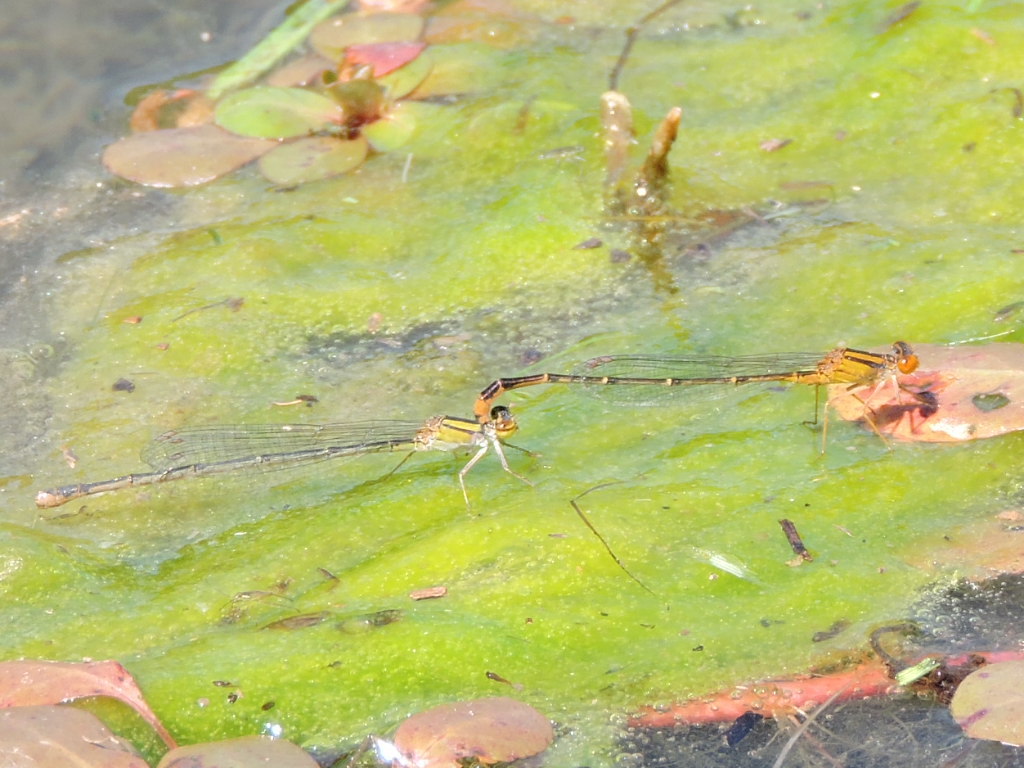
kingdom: Animalia
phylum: Arthropoda
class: Insecta
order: Odonata
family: Coenagrionidae
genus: Enallagma
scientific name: Enallagma signatum
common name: Orange bluet
